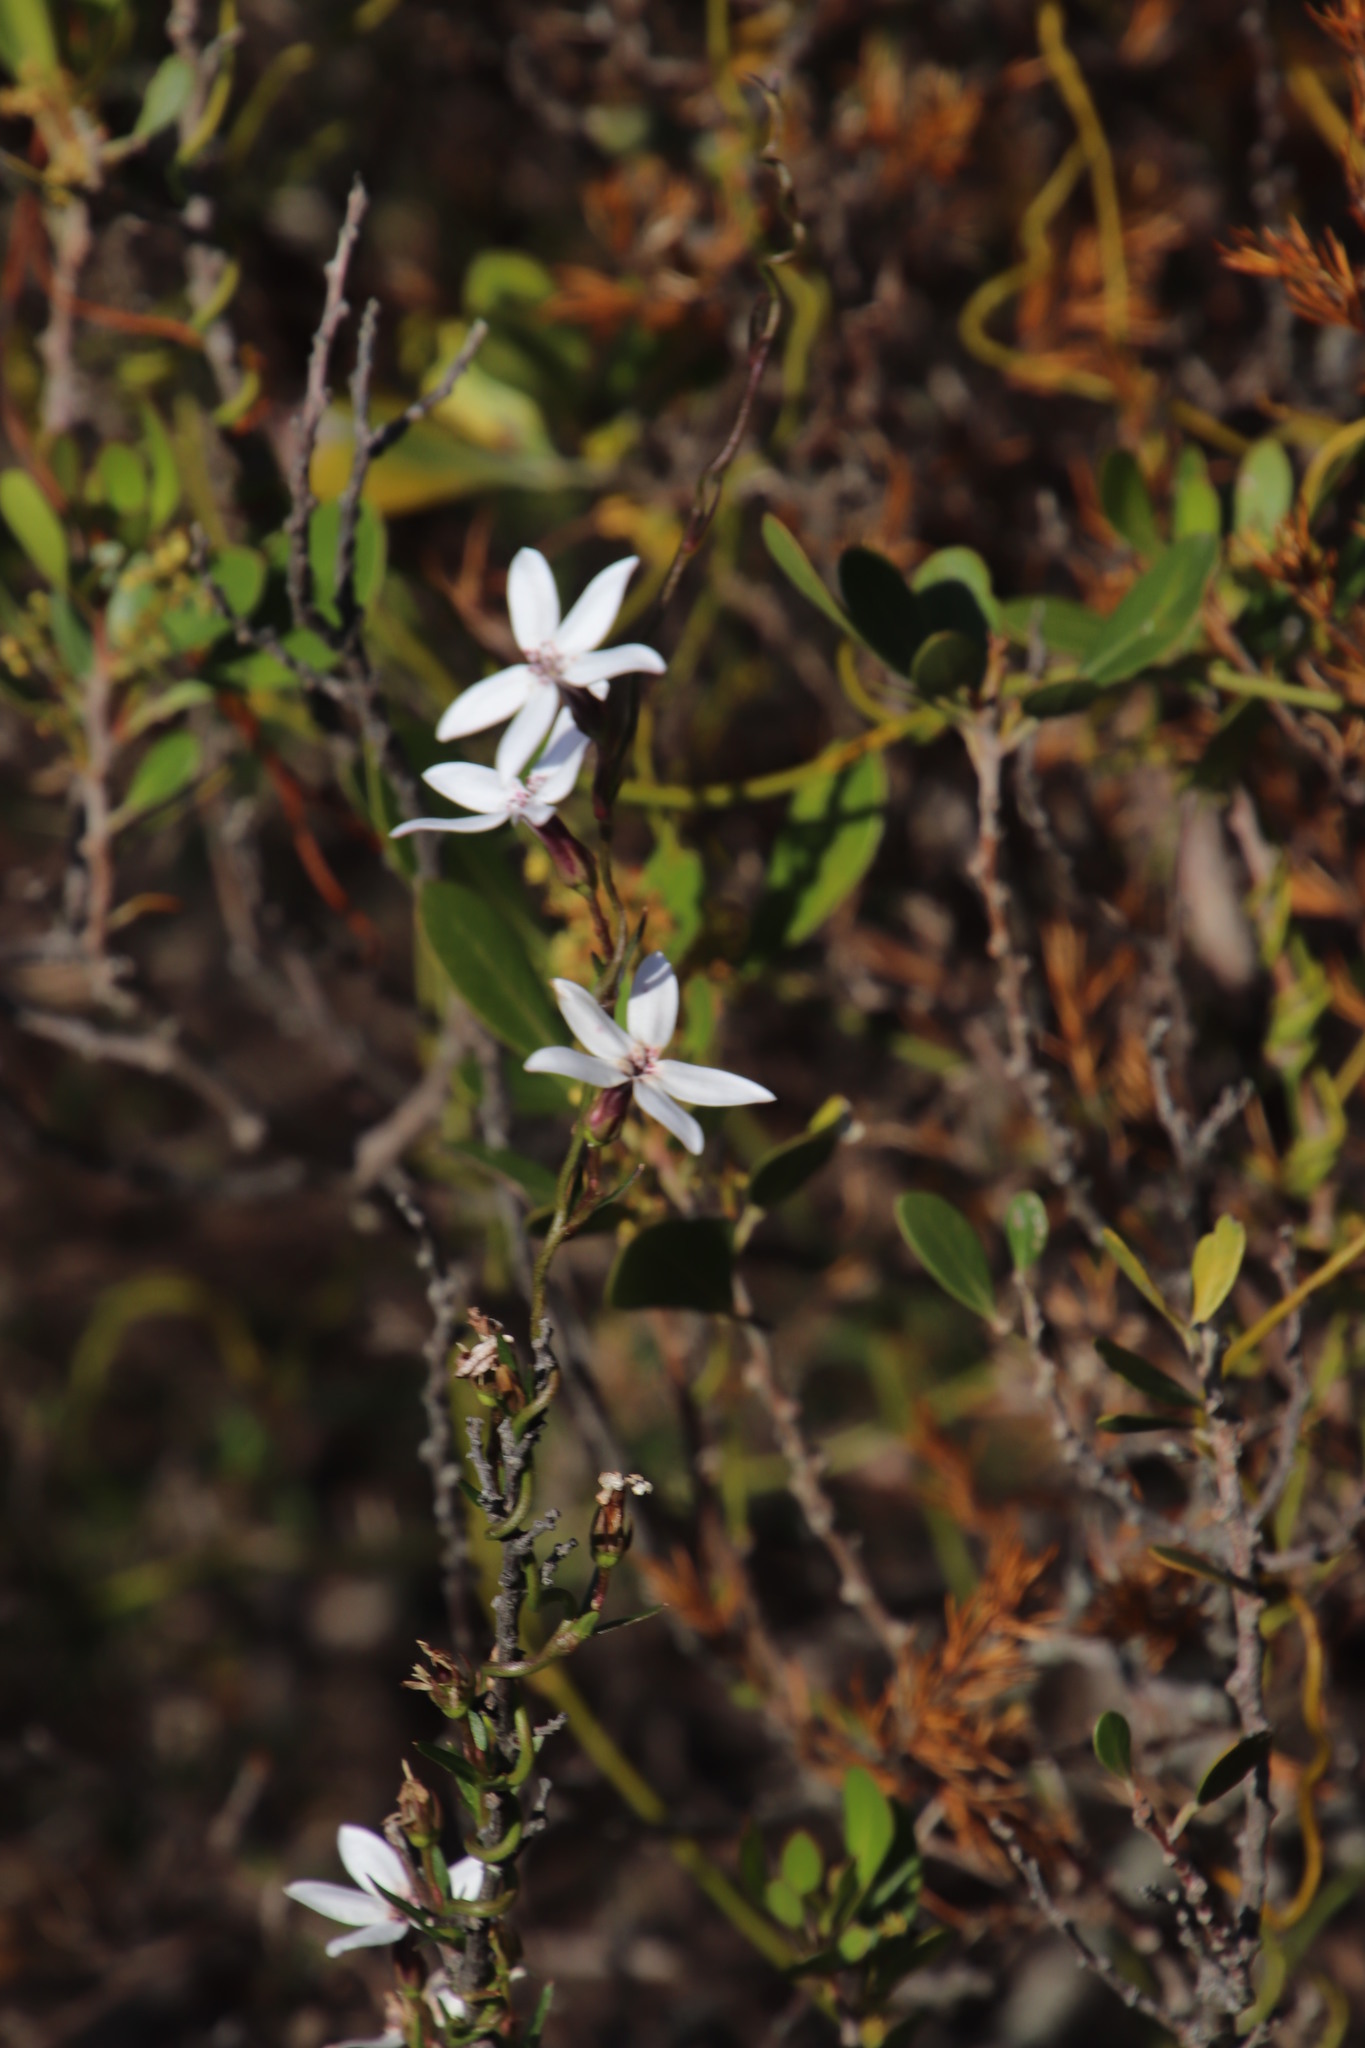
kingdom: Plantae
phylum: Tracheophyta
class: Magnoliopsida
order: Asterales
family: Campanulaceae
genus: Cyphia
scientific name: Cyphia volubilis
